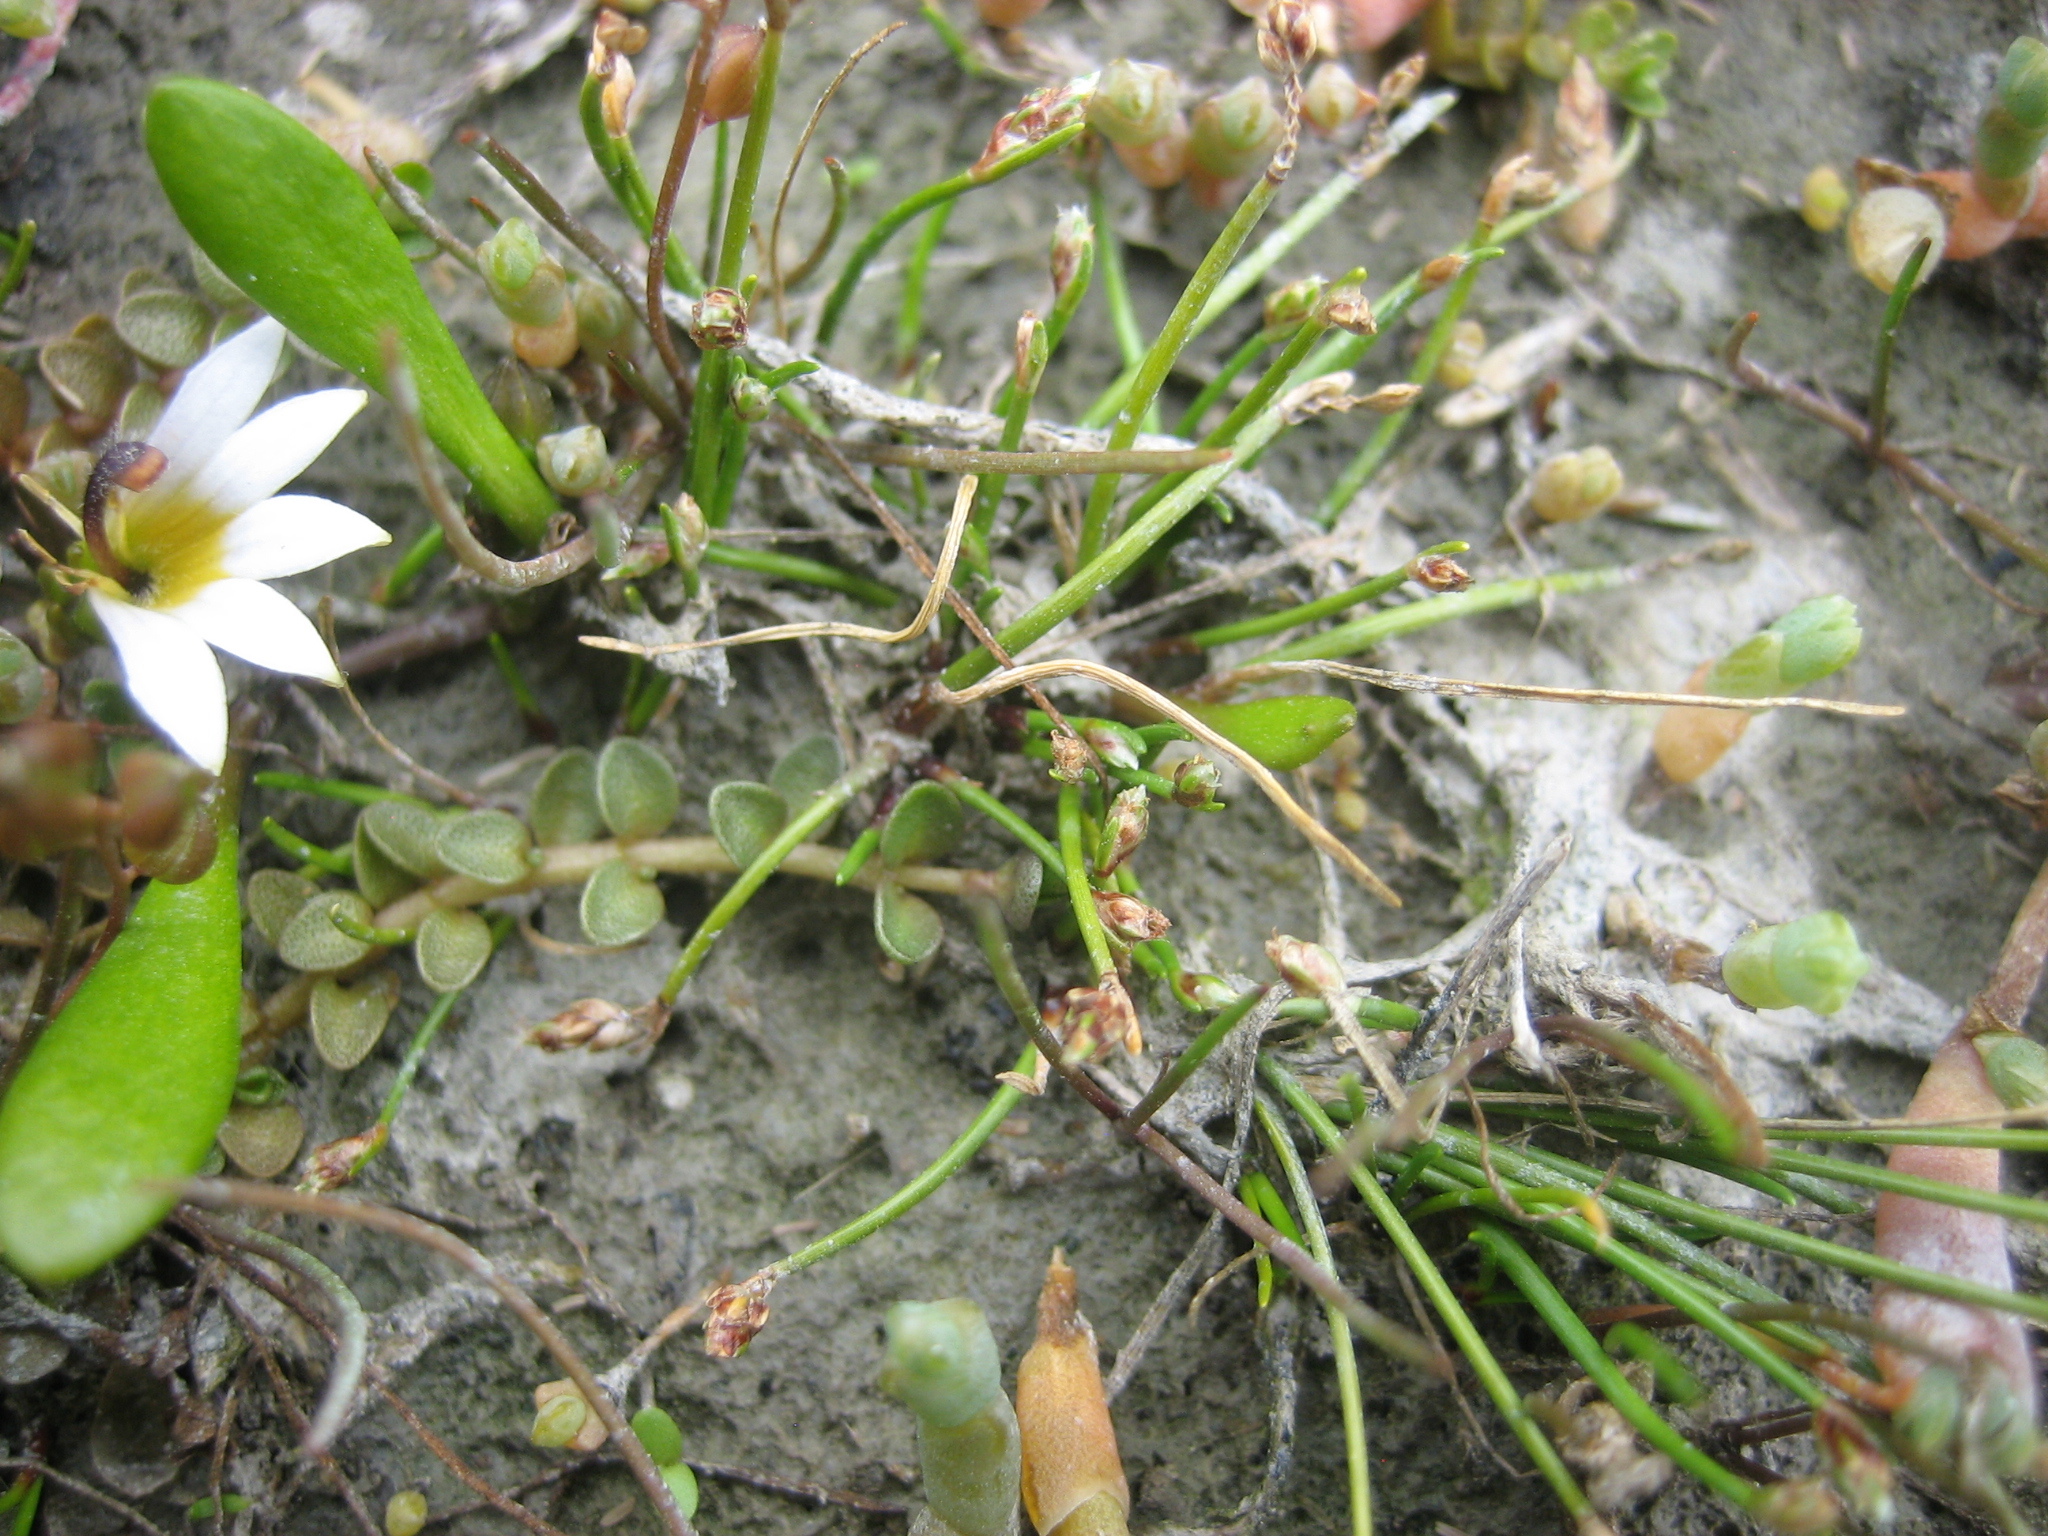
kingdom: Plantae
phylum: Tracheophyta
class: Liliopsida
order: Poales
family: Cyperaceae
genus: Isolepis
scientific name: Isolepis cernua
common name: Slender club-rush
